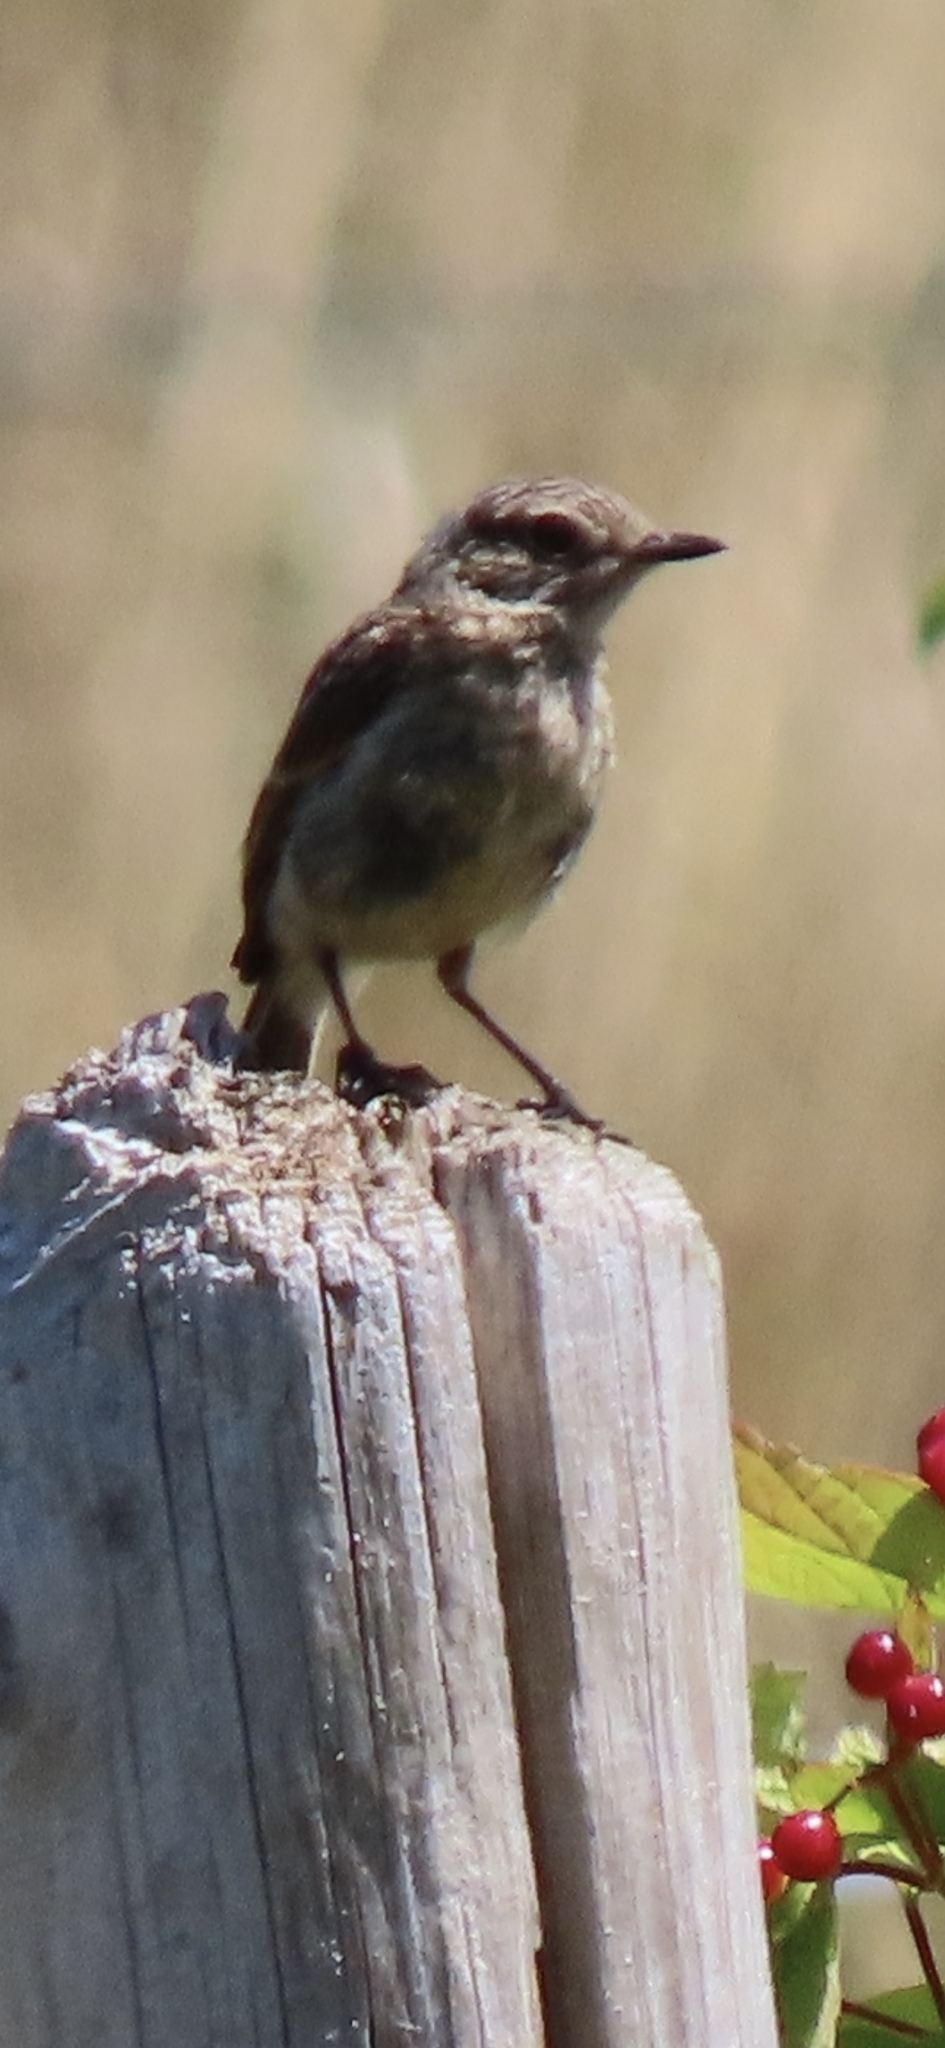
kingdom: Animalia
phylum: Chordata
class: Aves
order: Passeriformes
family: Muscicapidae
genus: Saxicola
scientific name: Saxicola rubicola
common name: European stonechat
